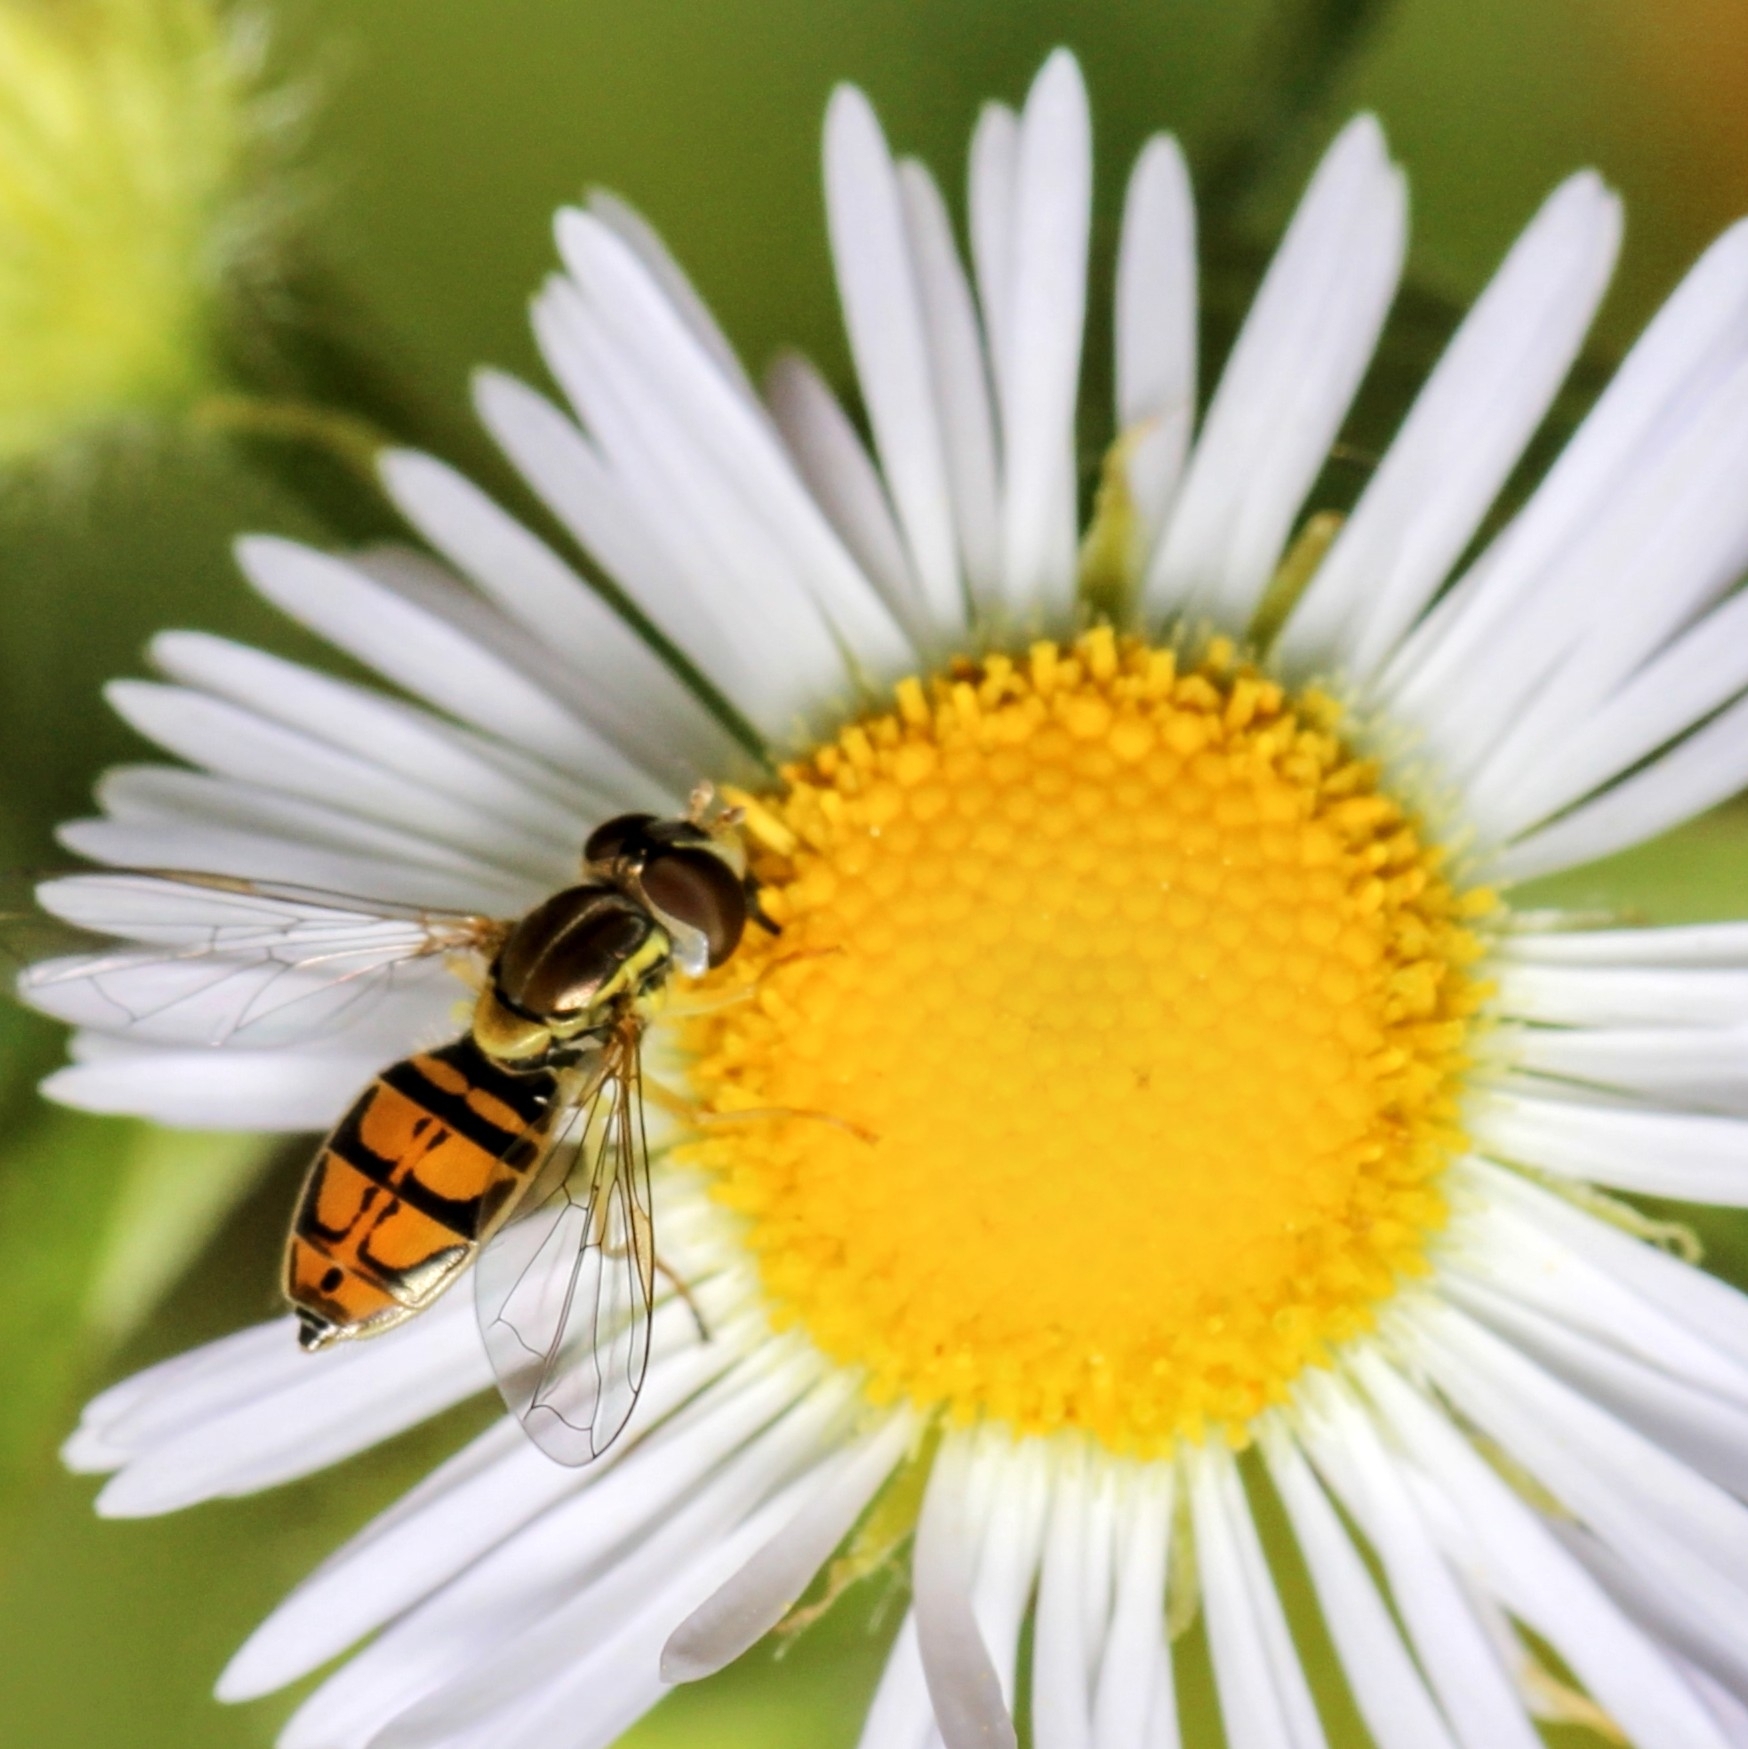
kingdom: Animalia
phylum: Arthropoda
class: Insecta
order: Diptera
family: Syrphidae
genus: Toxomerus
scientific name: Toxomerus marginatus
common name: Syrphid fly
